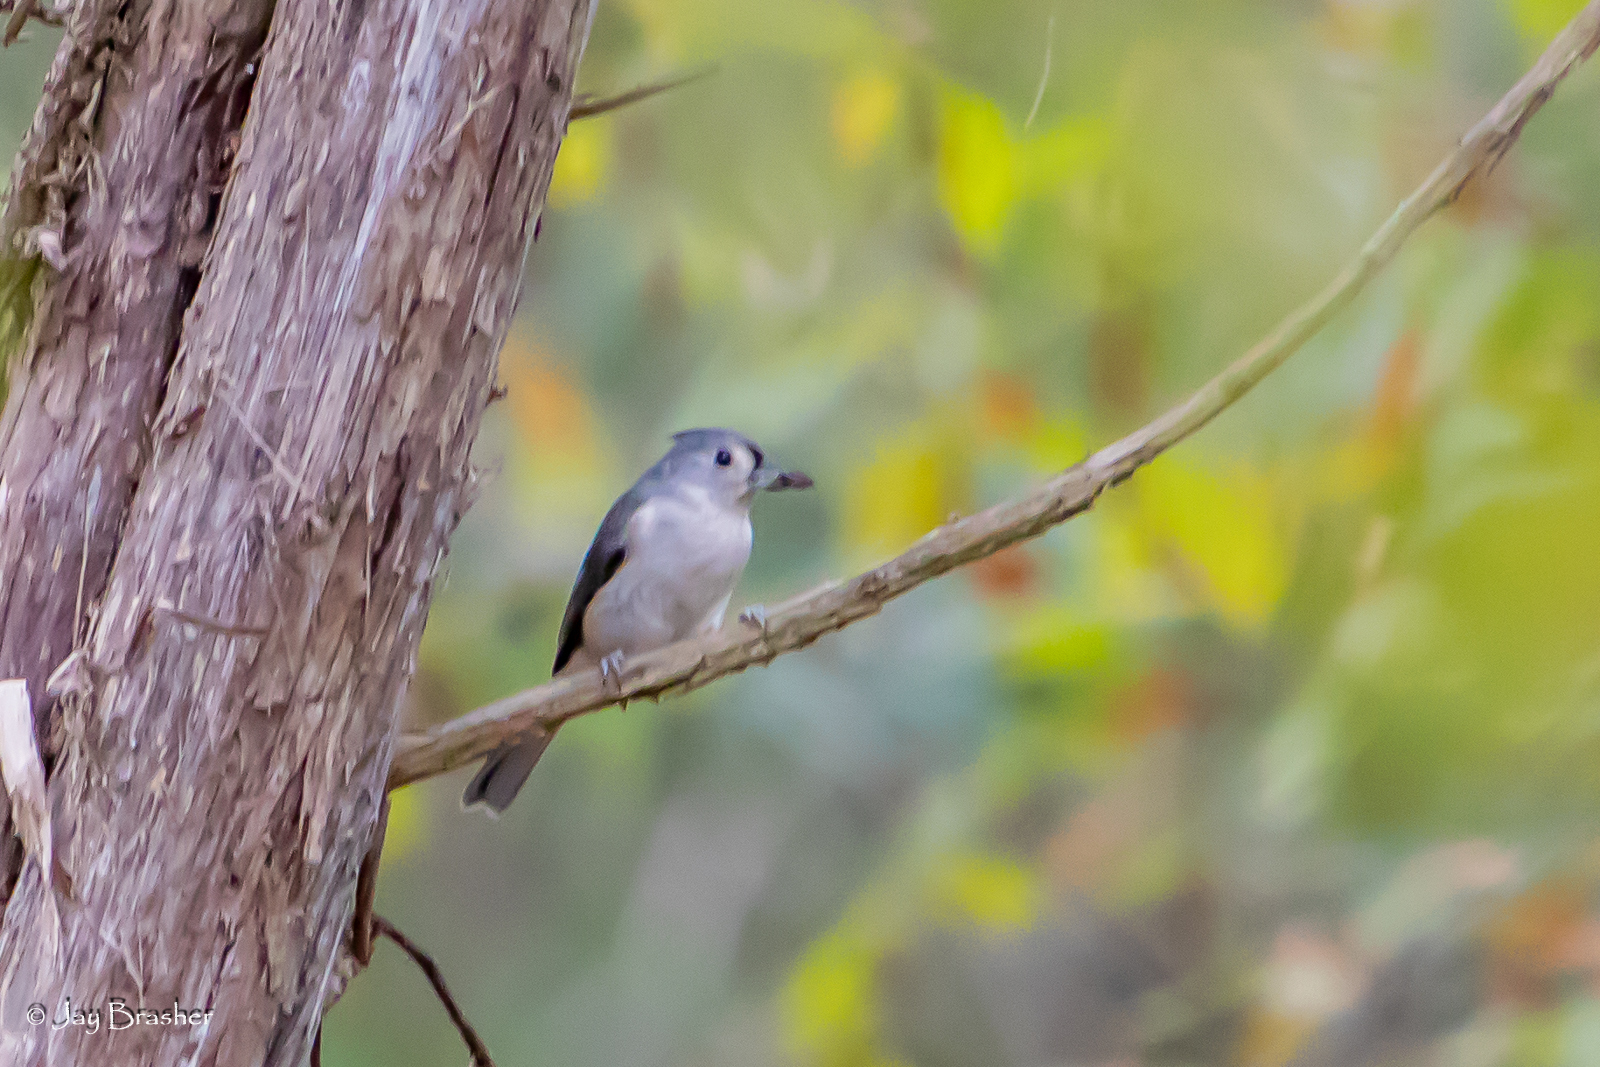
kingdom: Animalia
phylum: Chordata
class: Aves
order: Passeriformes
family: Paridae
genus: Baeolophus
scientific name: Baeolophus bicolor
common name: Tufted titmouse
